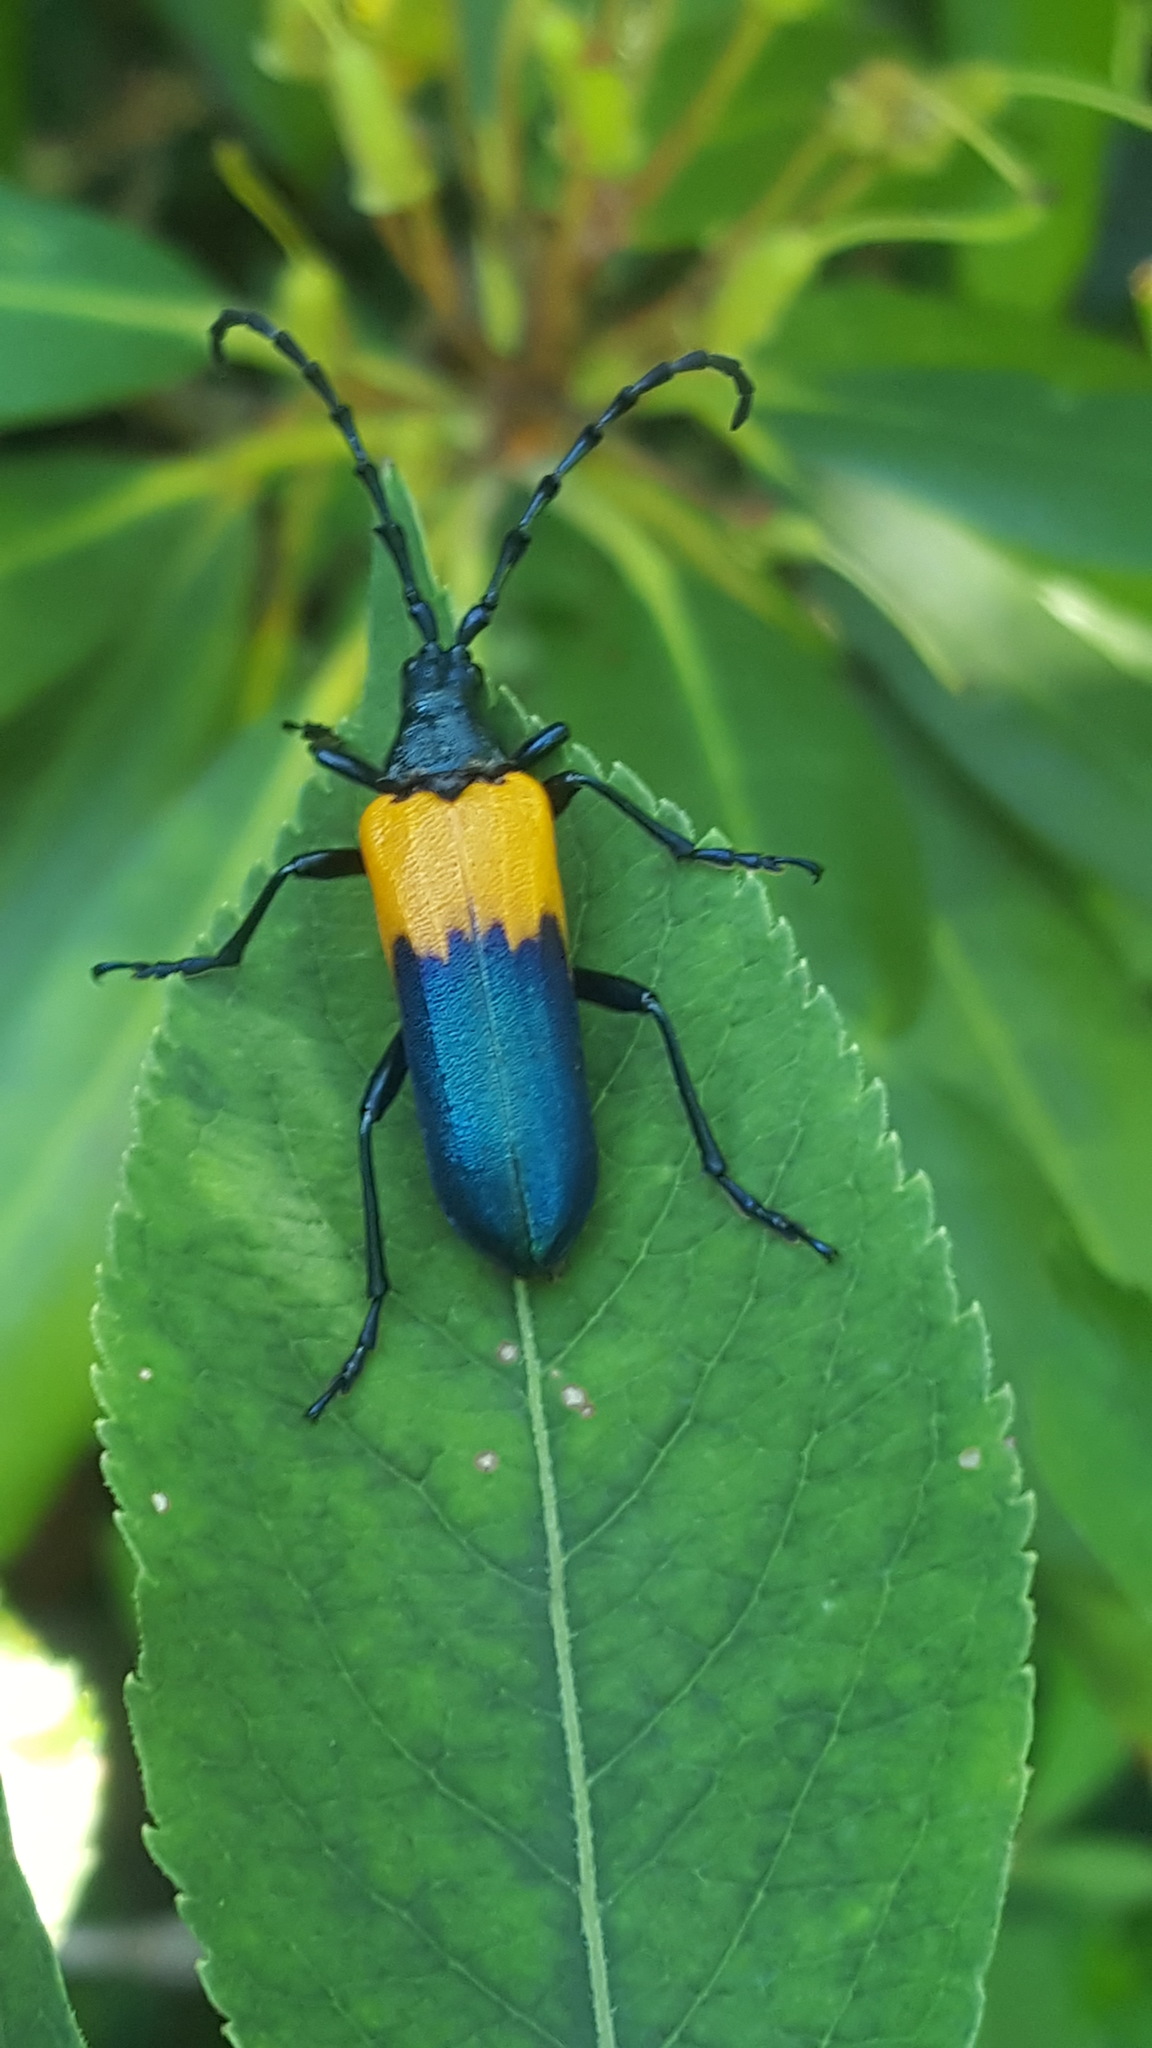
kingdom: Animalia
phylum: Arthropoda
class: Insecta
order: Coleoptera
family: Cerambycidae
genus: Desmocerus
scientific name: Desmocerus palliatus
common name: Eastern elderberry borer
